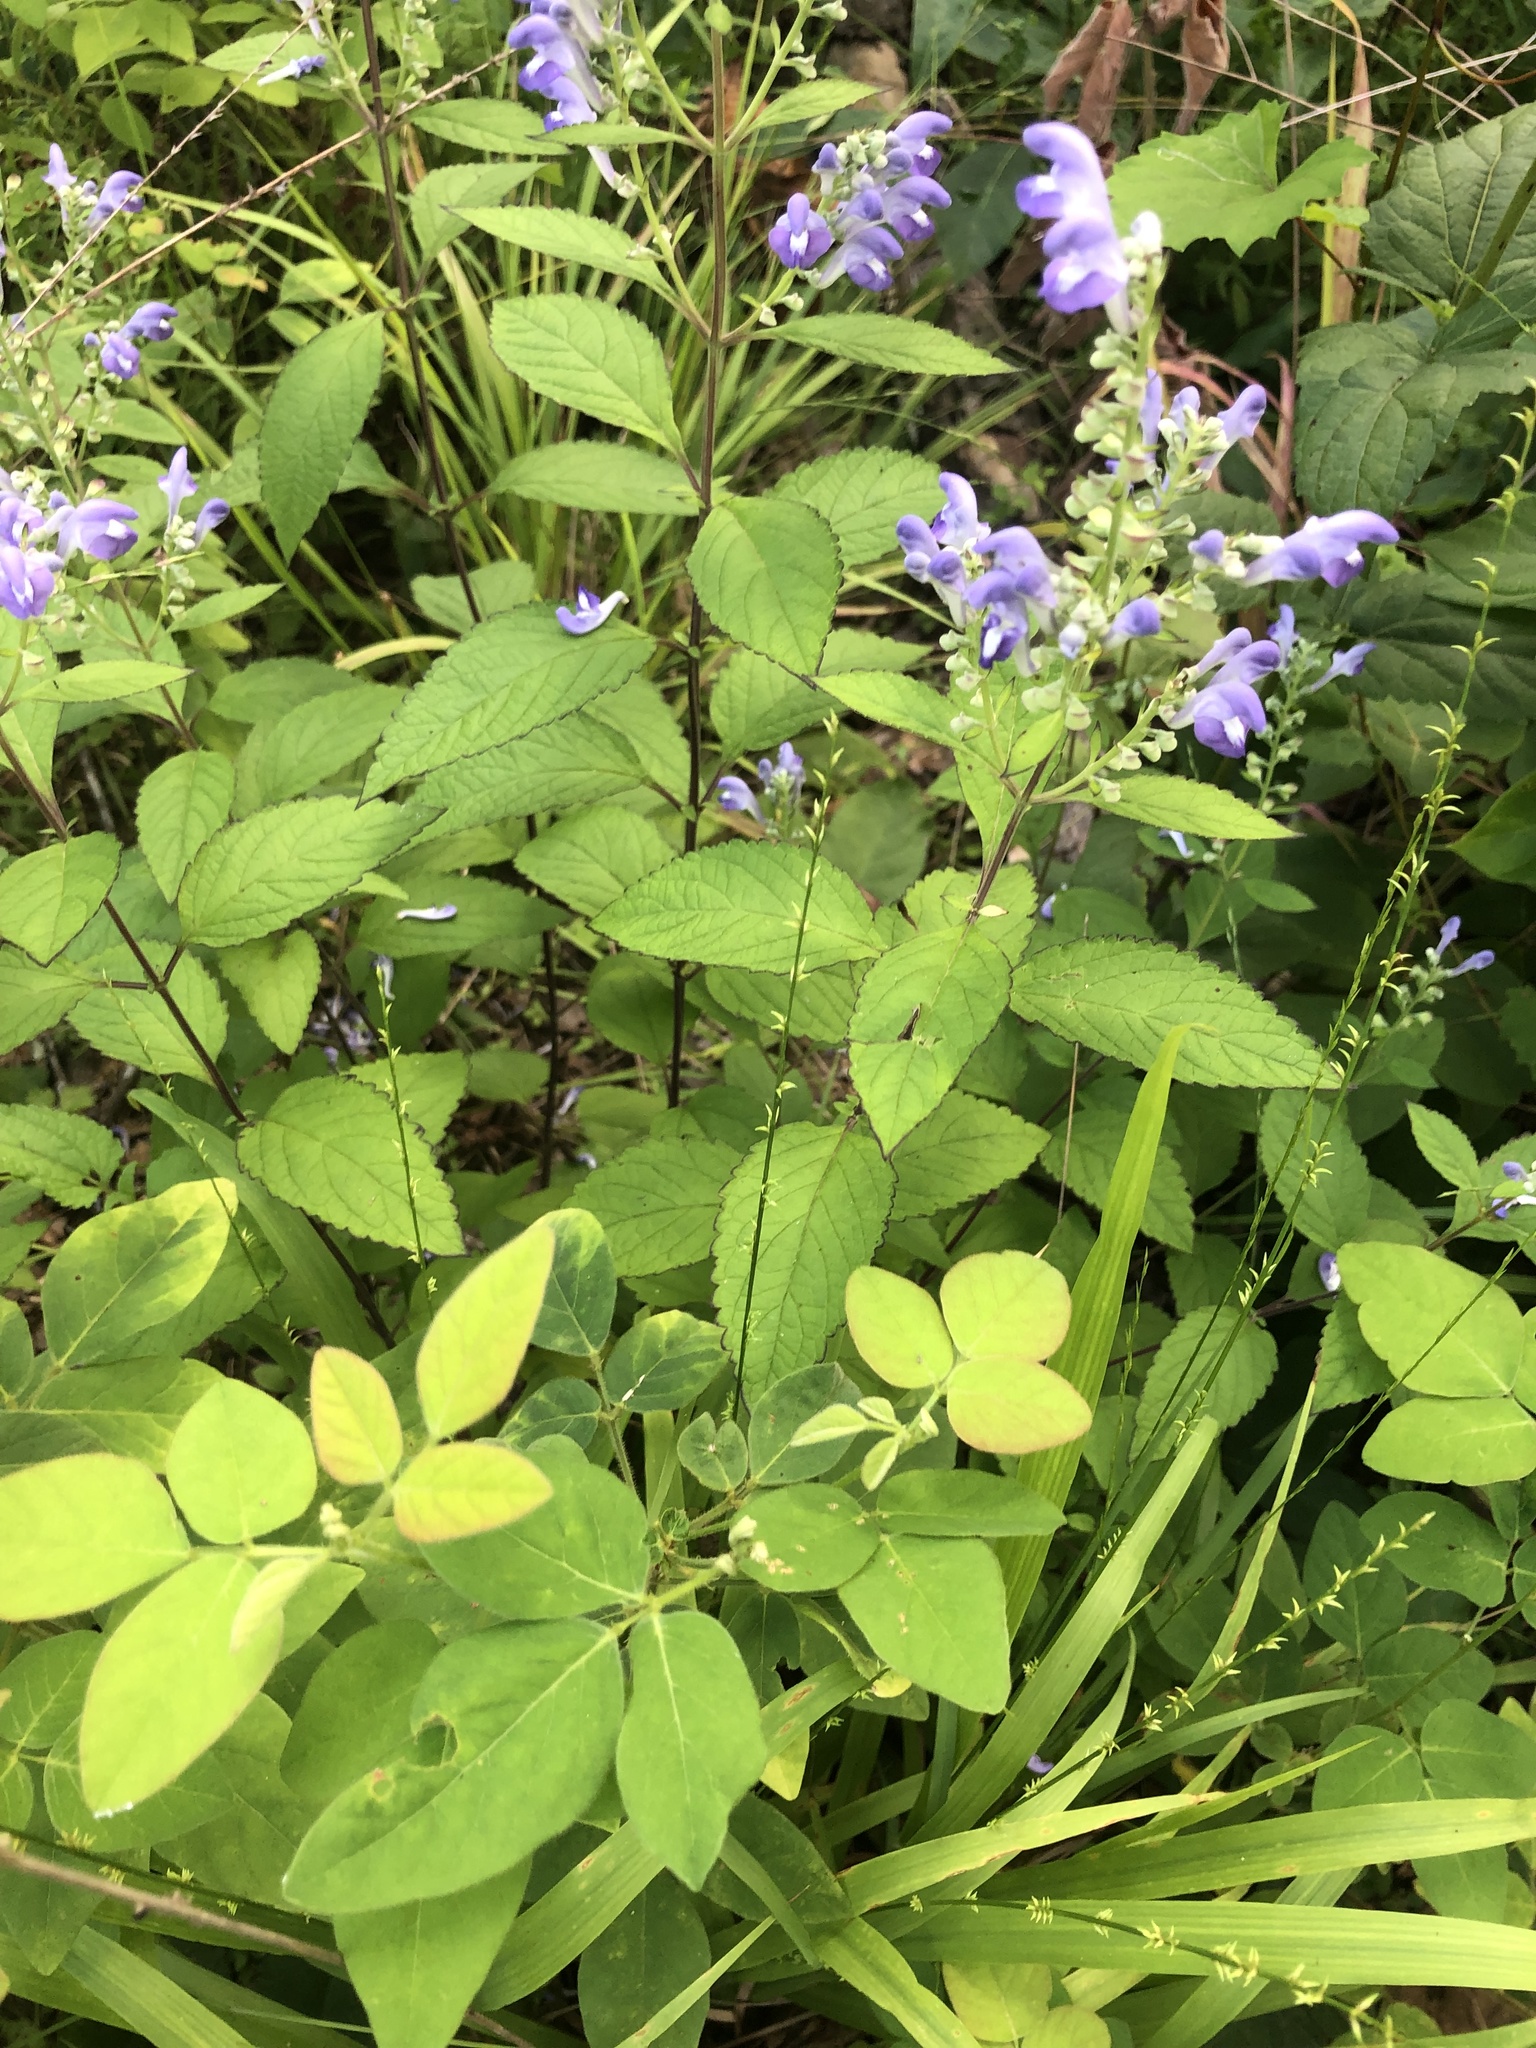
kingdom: Plantae
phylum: Tracheophyta
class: Magnoliopsida
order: Lamiales
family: Lamiaceae
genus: Scutellaria
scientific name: Scutellaria incana
